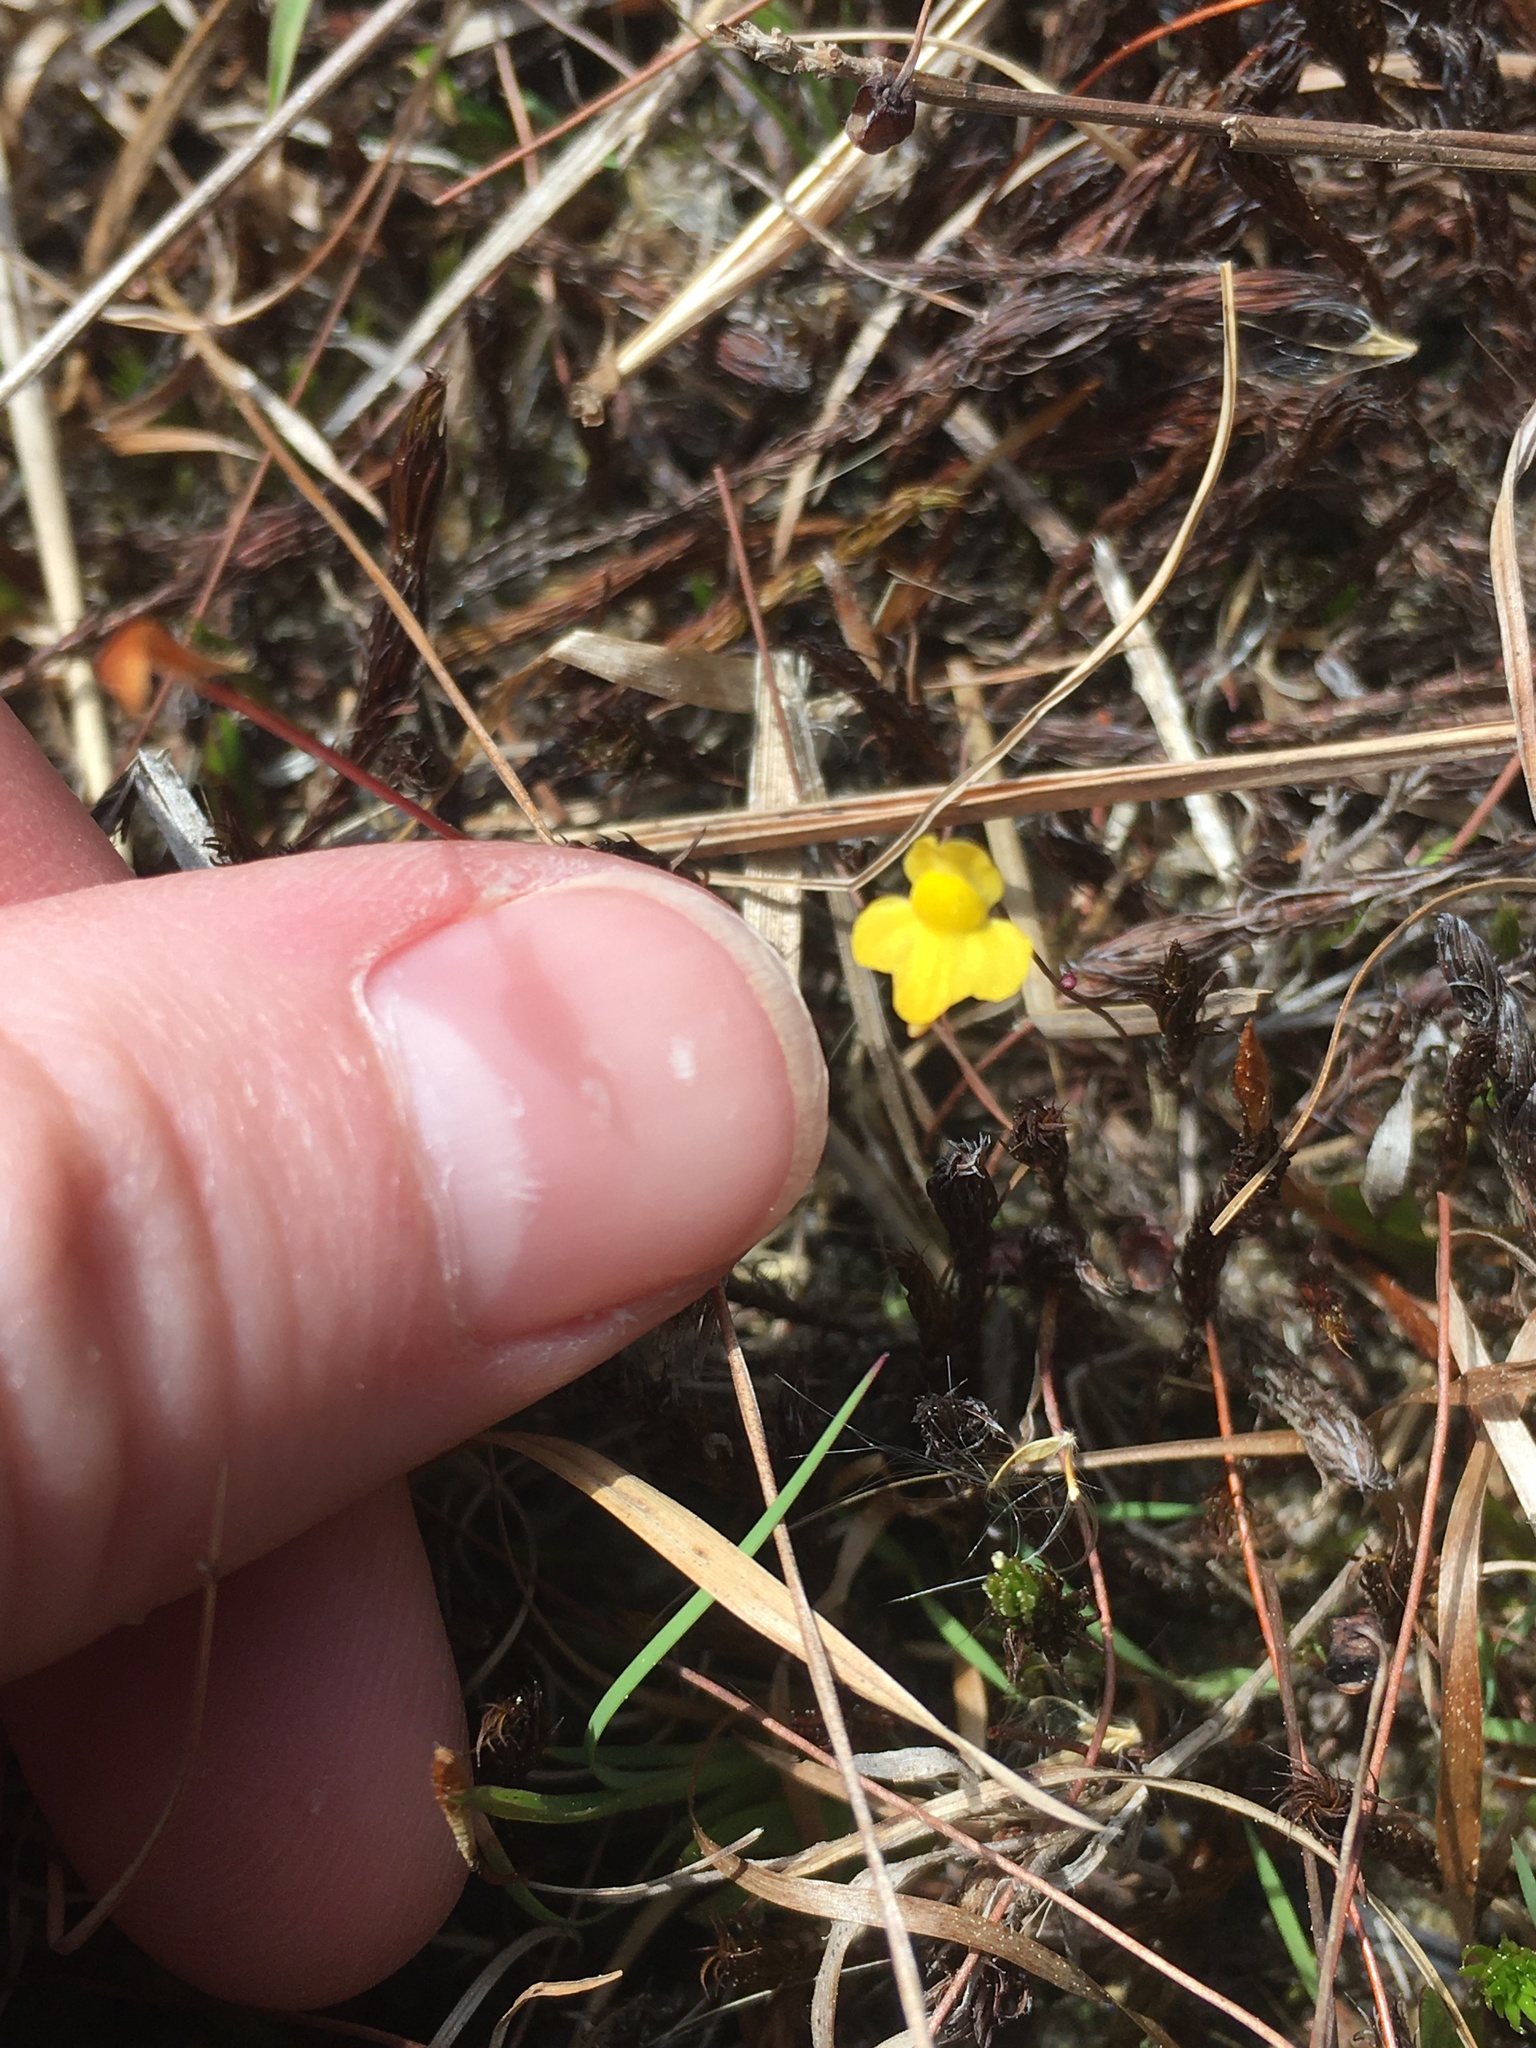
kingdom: Plantae
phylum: Tracheophyta
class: Magnoliopsida
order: Lamiales
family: Lentibulariaceae
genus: Utricularia
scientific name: Utricularia subulata
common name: Tiny bladderwort
